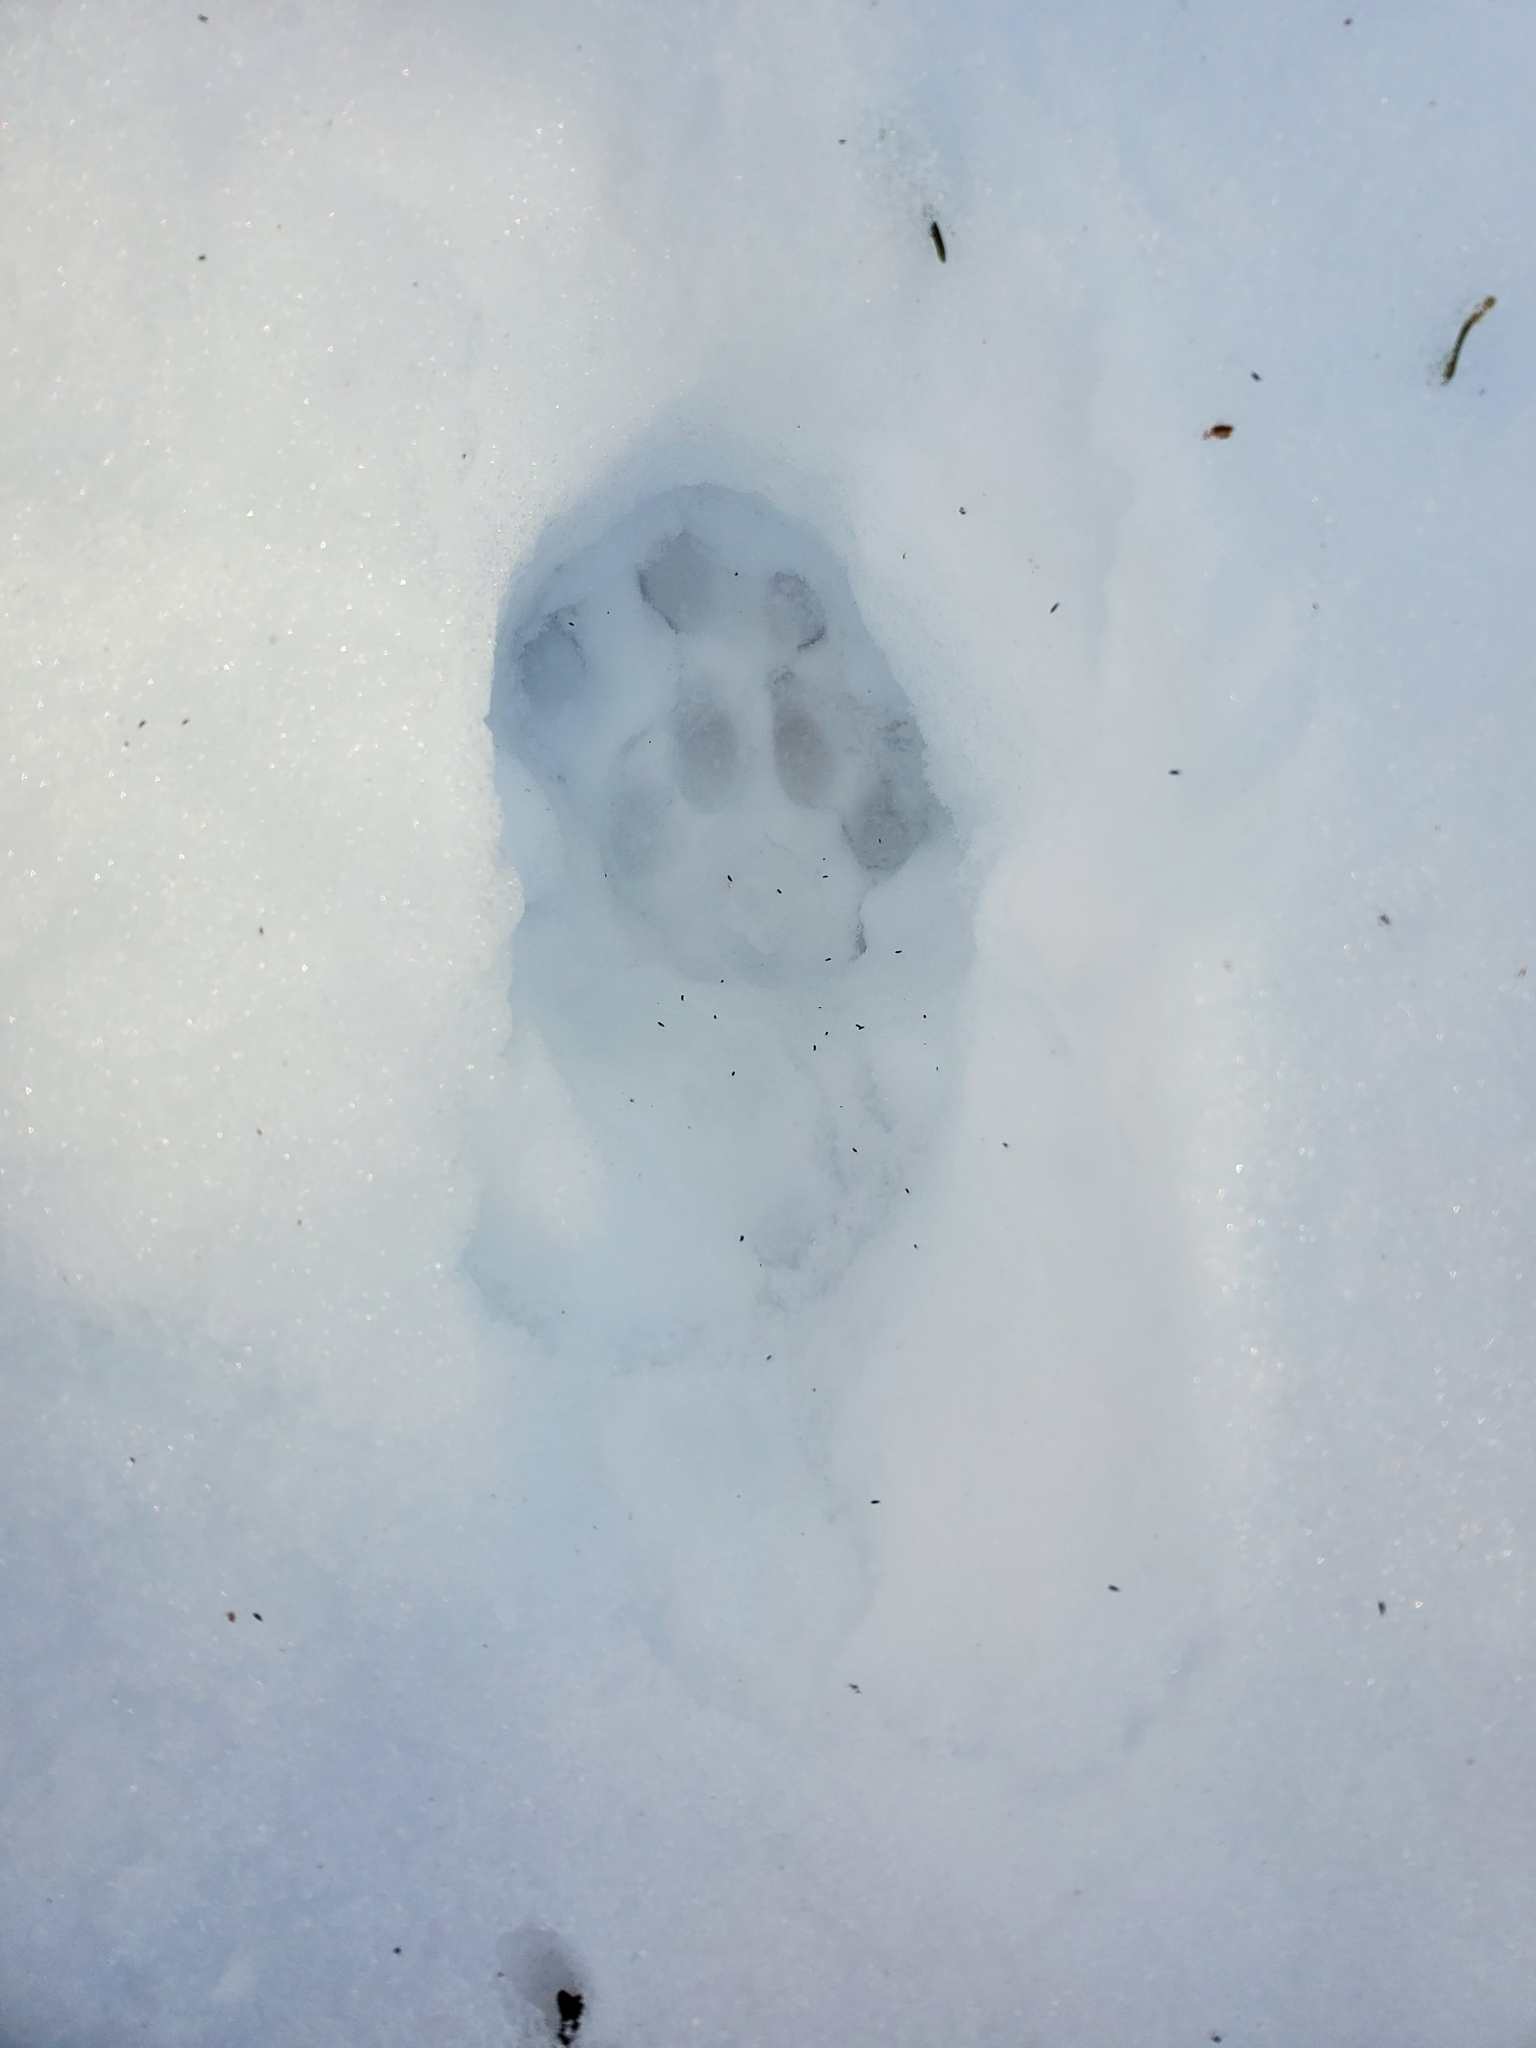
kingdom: Animalia
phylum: Chordata
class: Mammalia
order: Carnivora
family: Felidae
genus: Felis
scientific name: Felis catus
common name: Domestic cat
